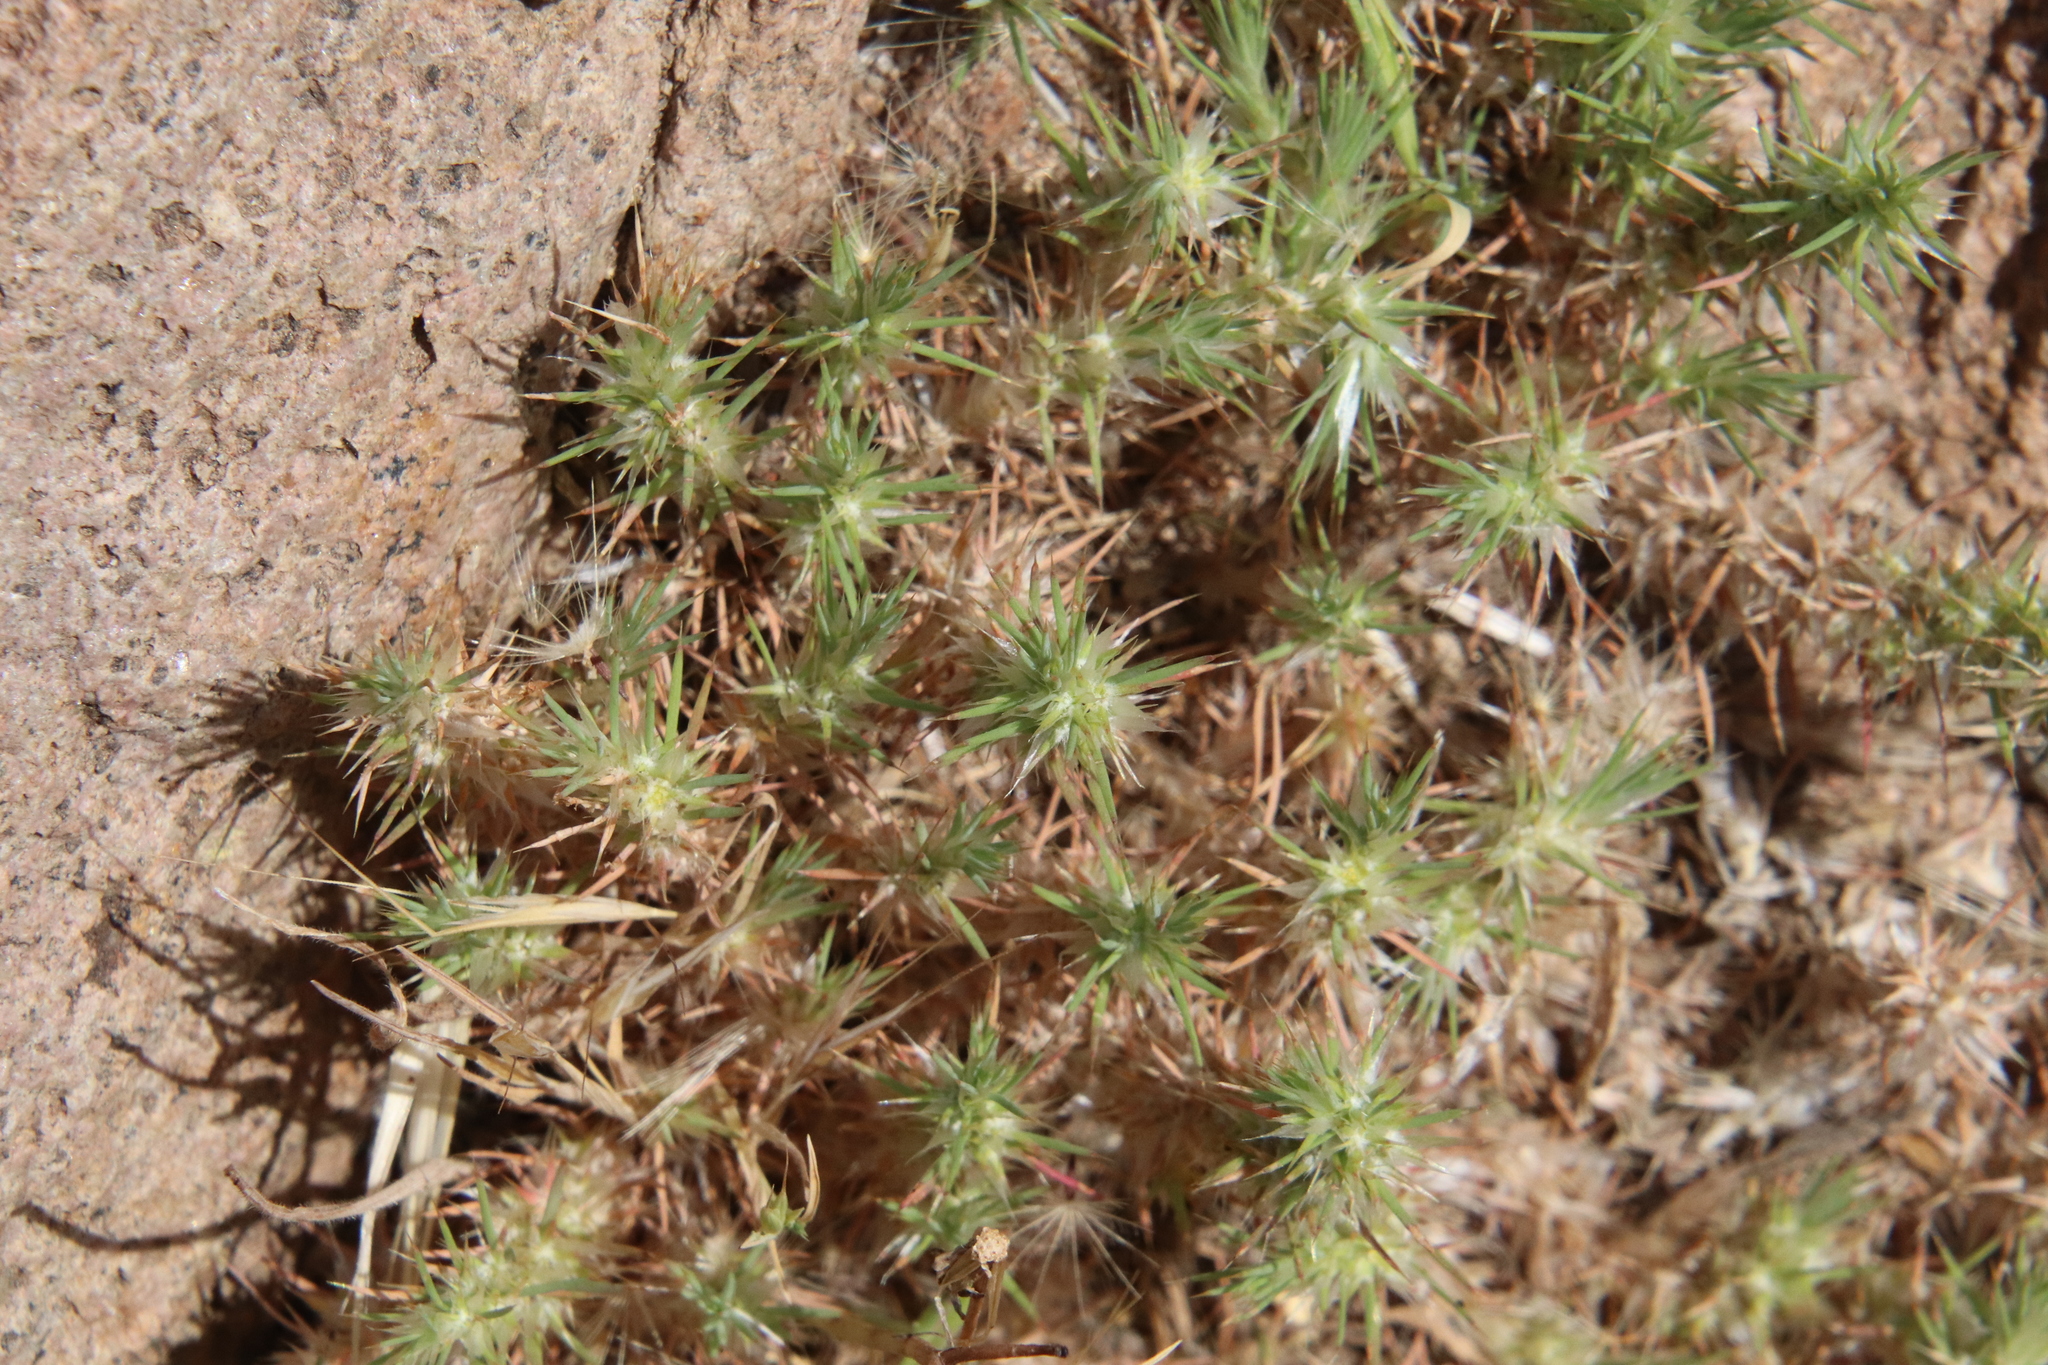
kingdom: Plantae
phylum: Tracheophyta
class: Magnoliopsida
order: Caryophyllales
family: Caryophyllaceae
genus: Cardionema
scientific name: Cardionema ramosissima
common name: Sandcarpet
